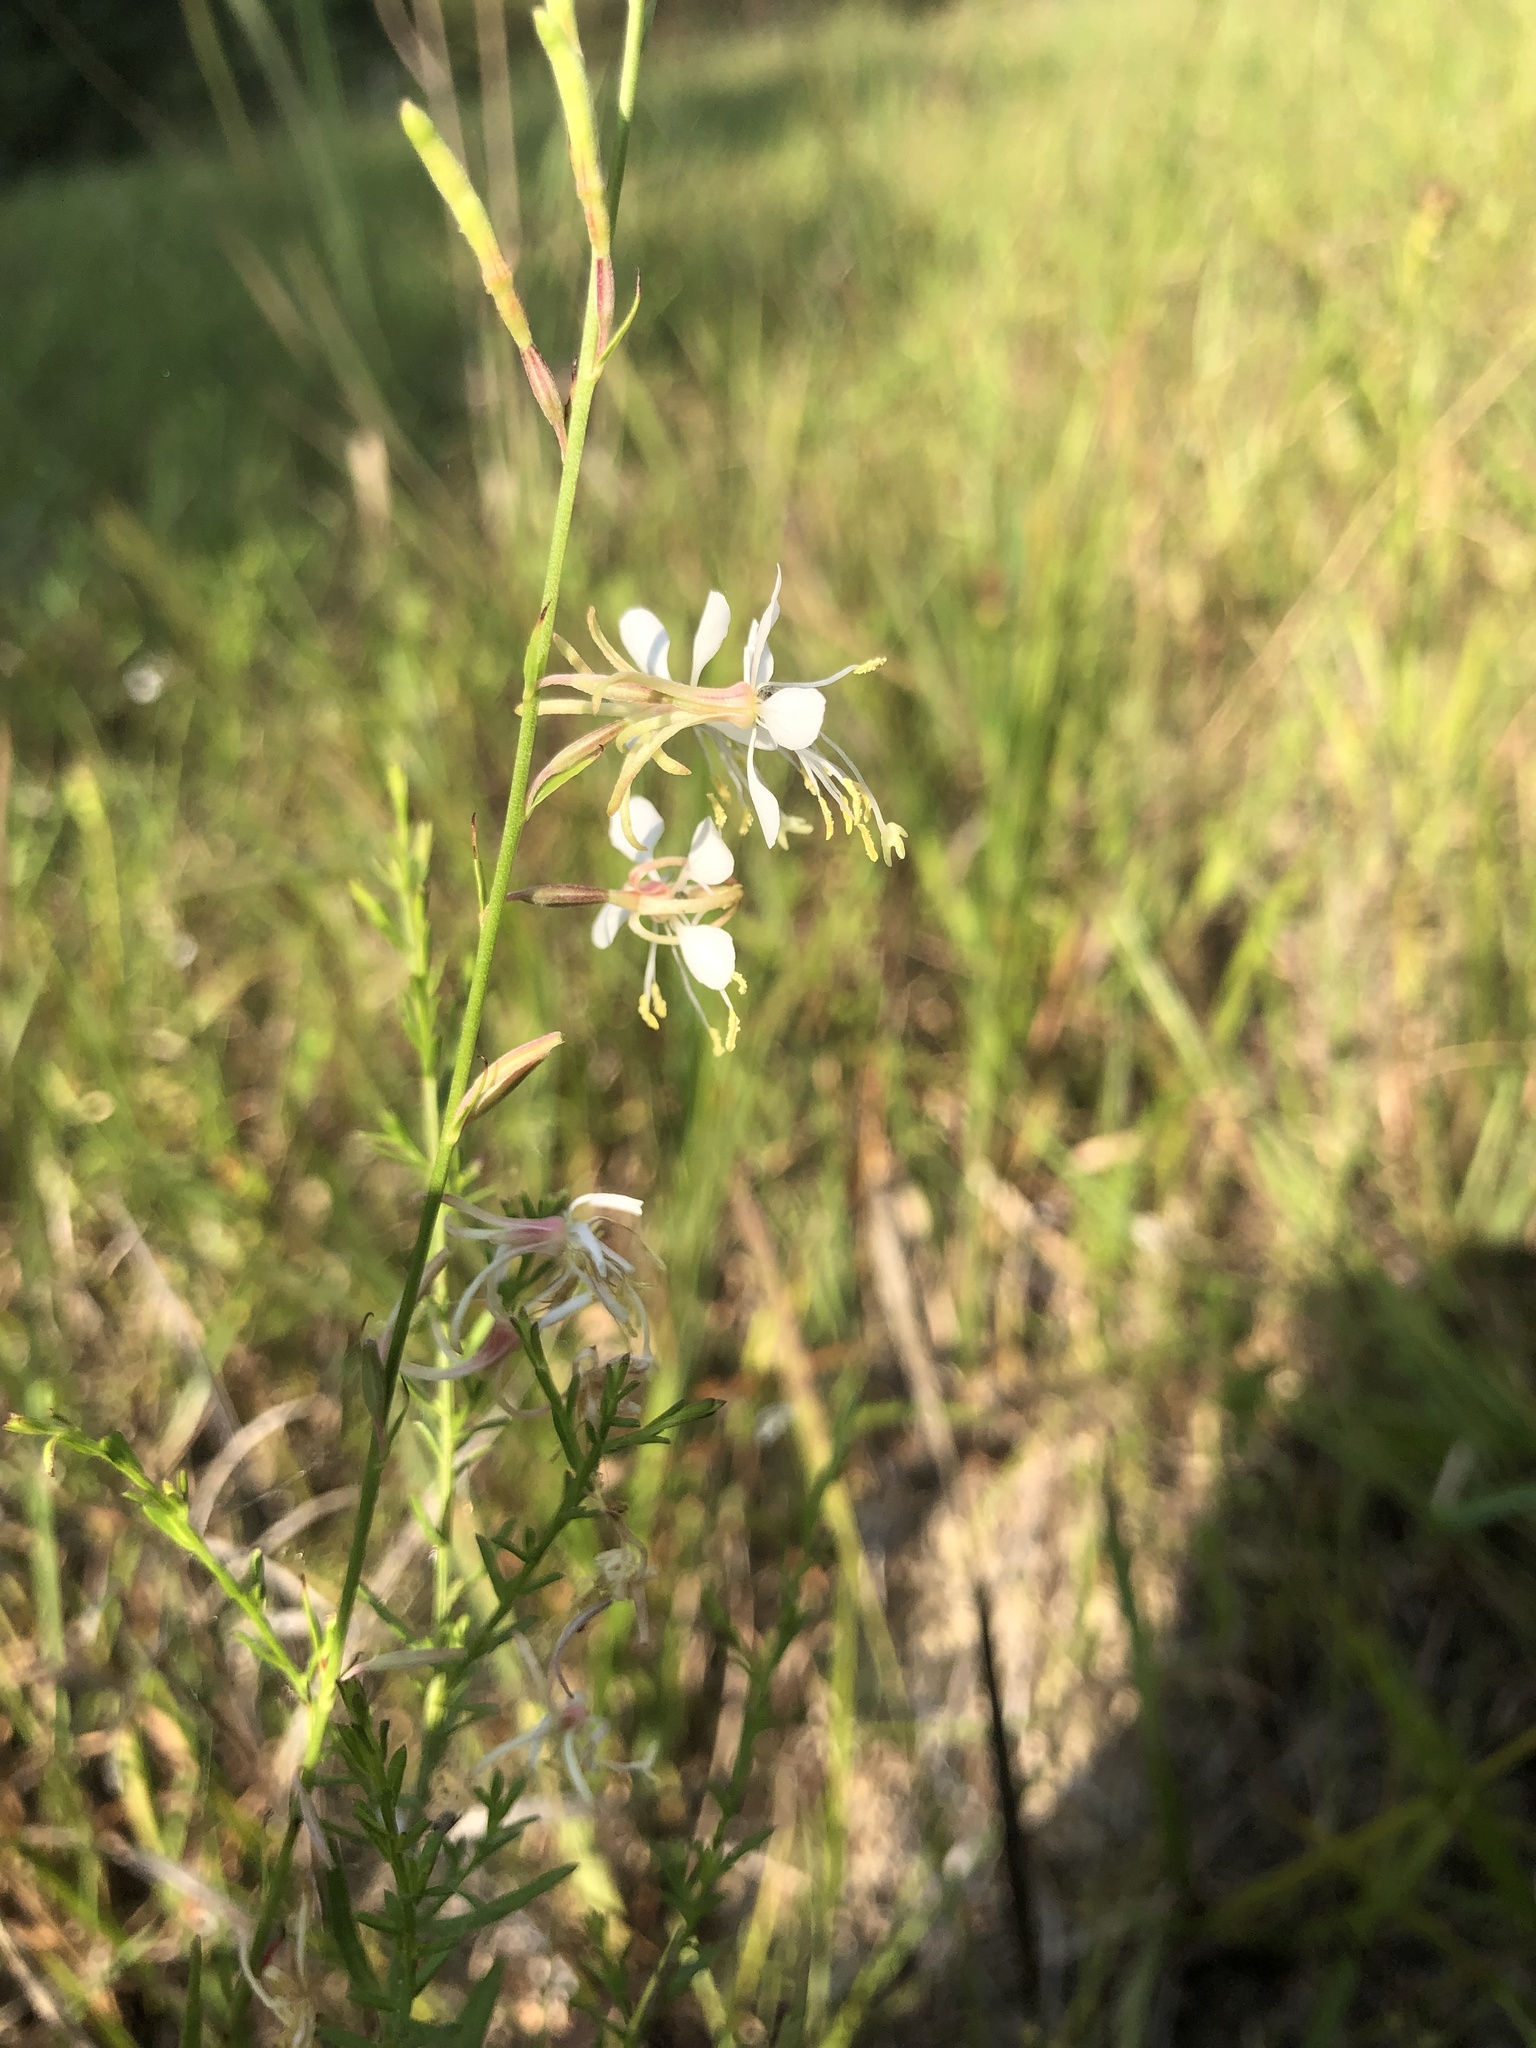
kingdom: Plantae
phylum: Tracheophyta
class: Magnoliopsida
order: Myrtales
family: Onagraceae
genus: Oenothera
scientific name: Oenothera filipes
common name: Slenderstalk beeblossom
